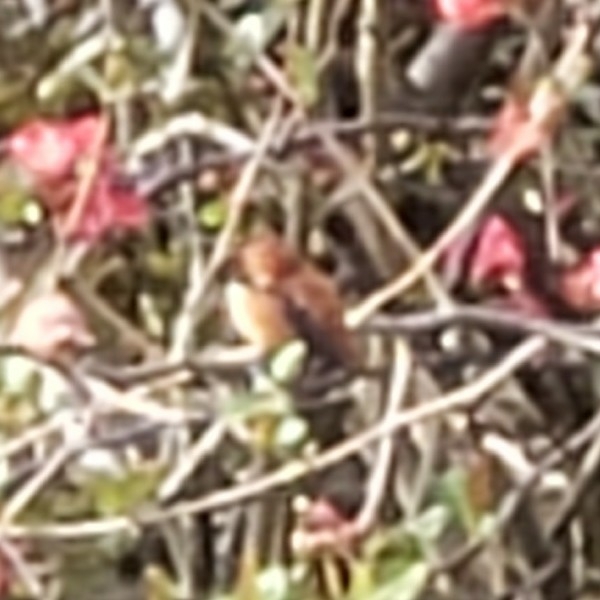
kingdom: Animalia
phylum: Chordata
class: Aves
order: Apodiformes
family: Trochilidae
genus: Selasphorus
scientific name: Selasphorus rufus
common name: Rufous hummingbird
